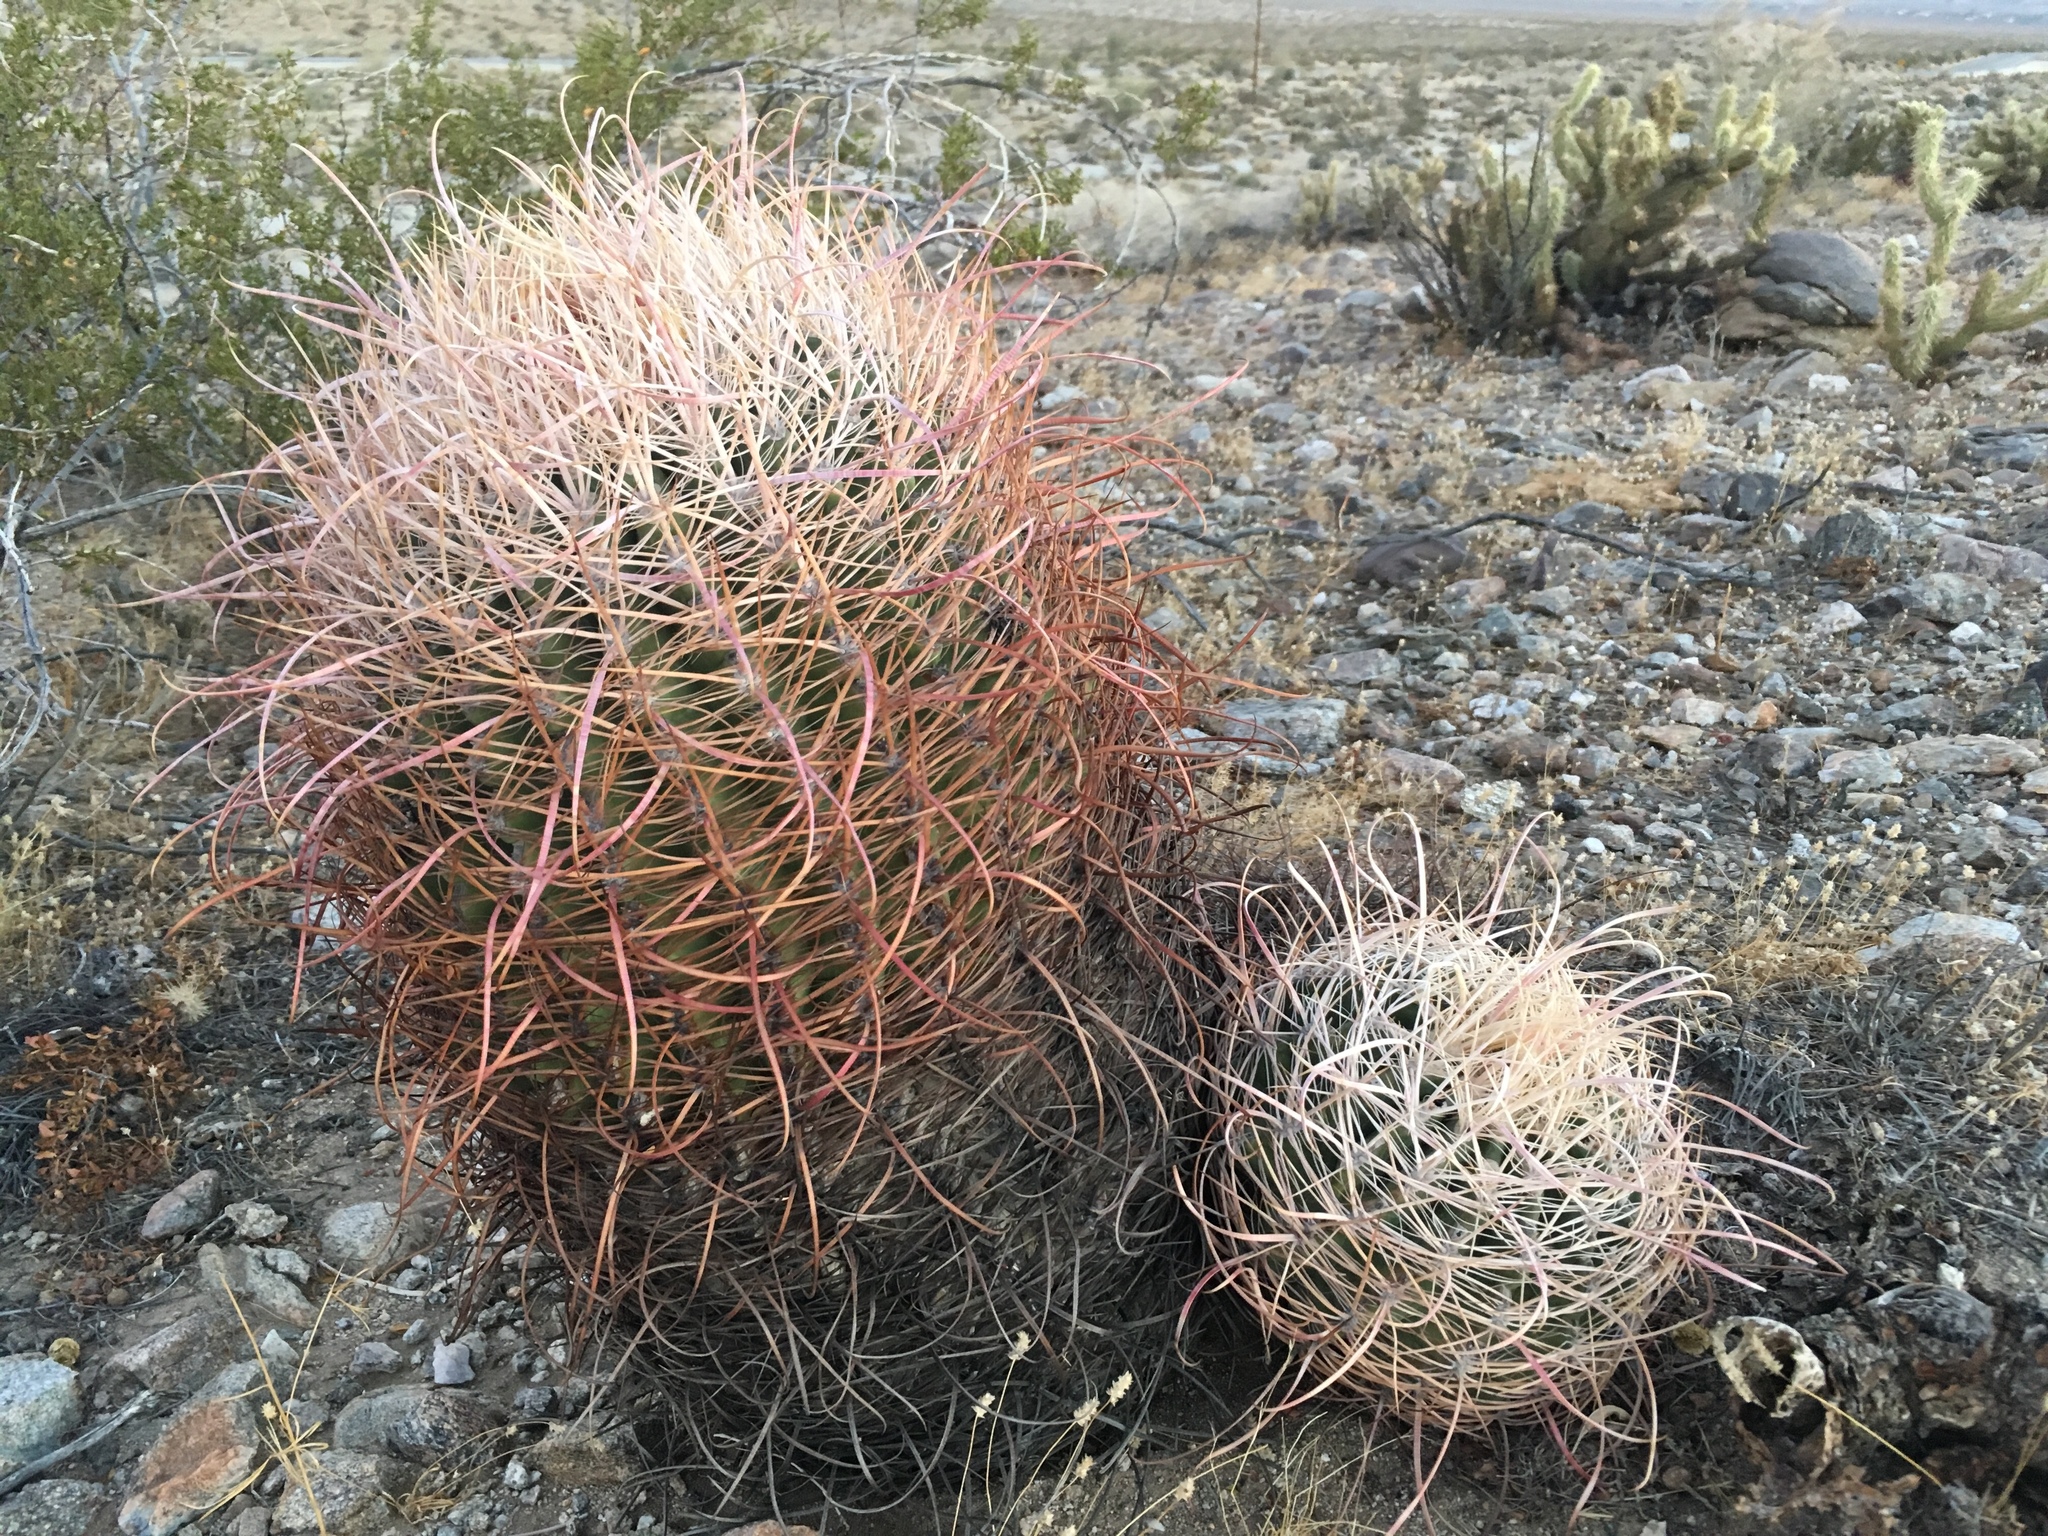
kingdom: Plantae
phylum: Tracheophyta
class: Magnoliopsida
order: Caryophyllales
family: Cactaceae
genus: Ferocactus
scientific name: Ferocactus cylindraceus
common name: California barrel cactus
